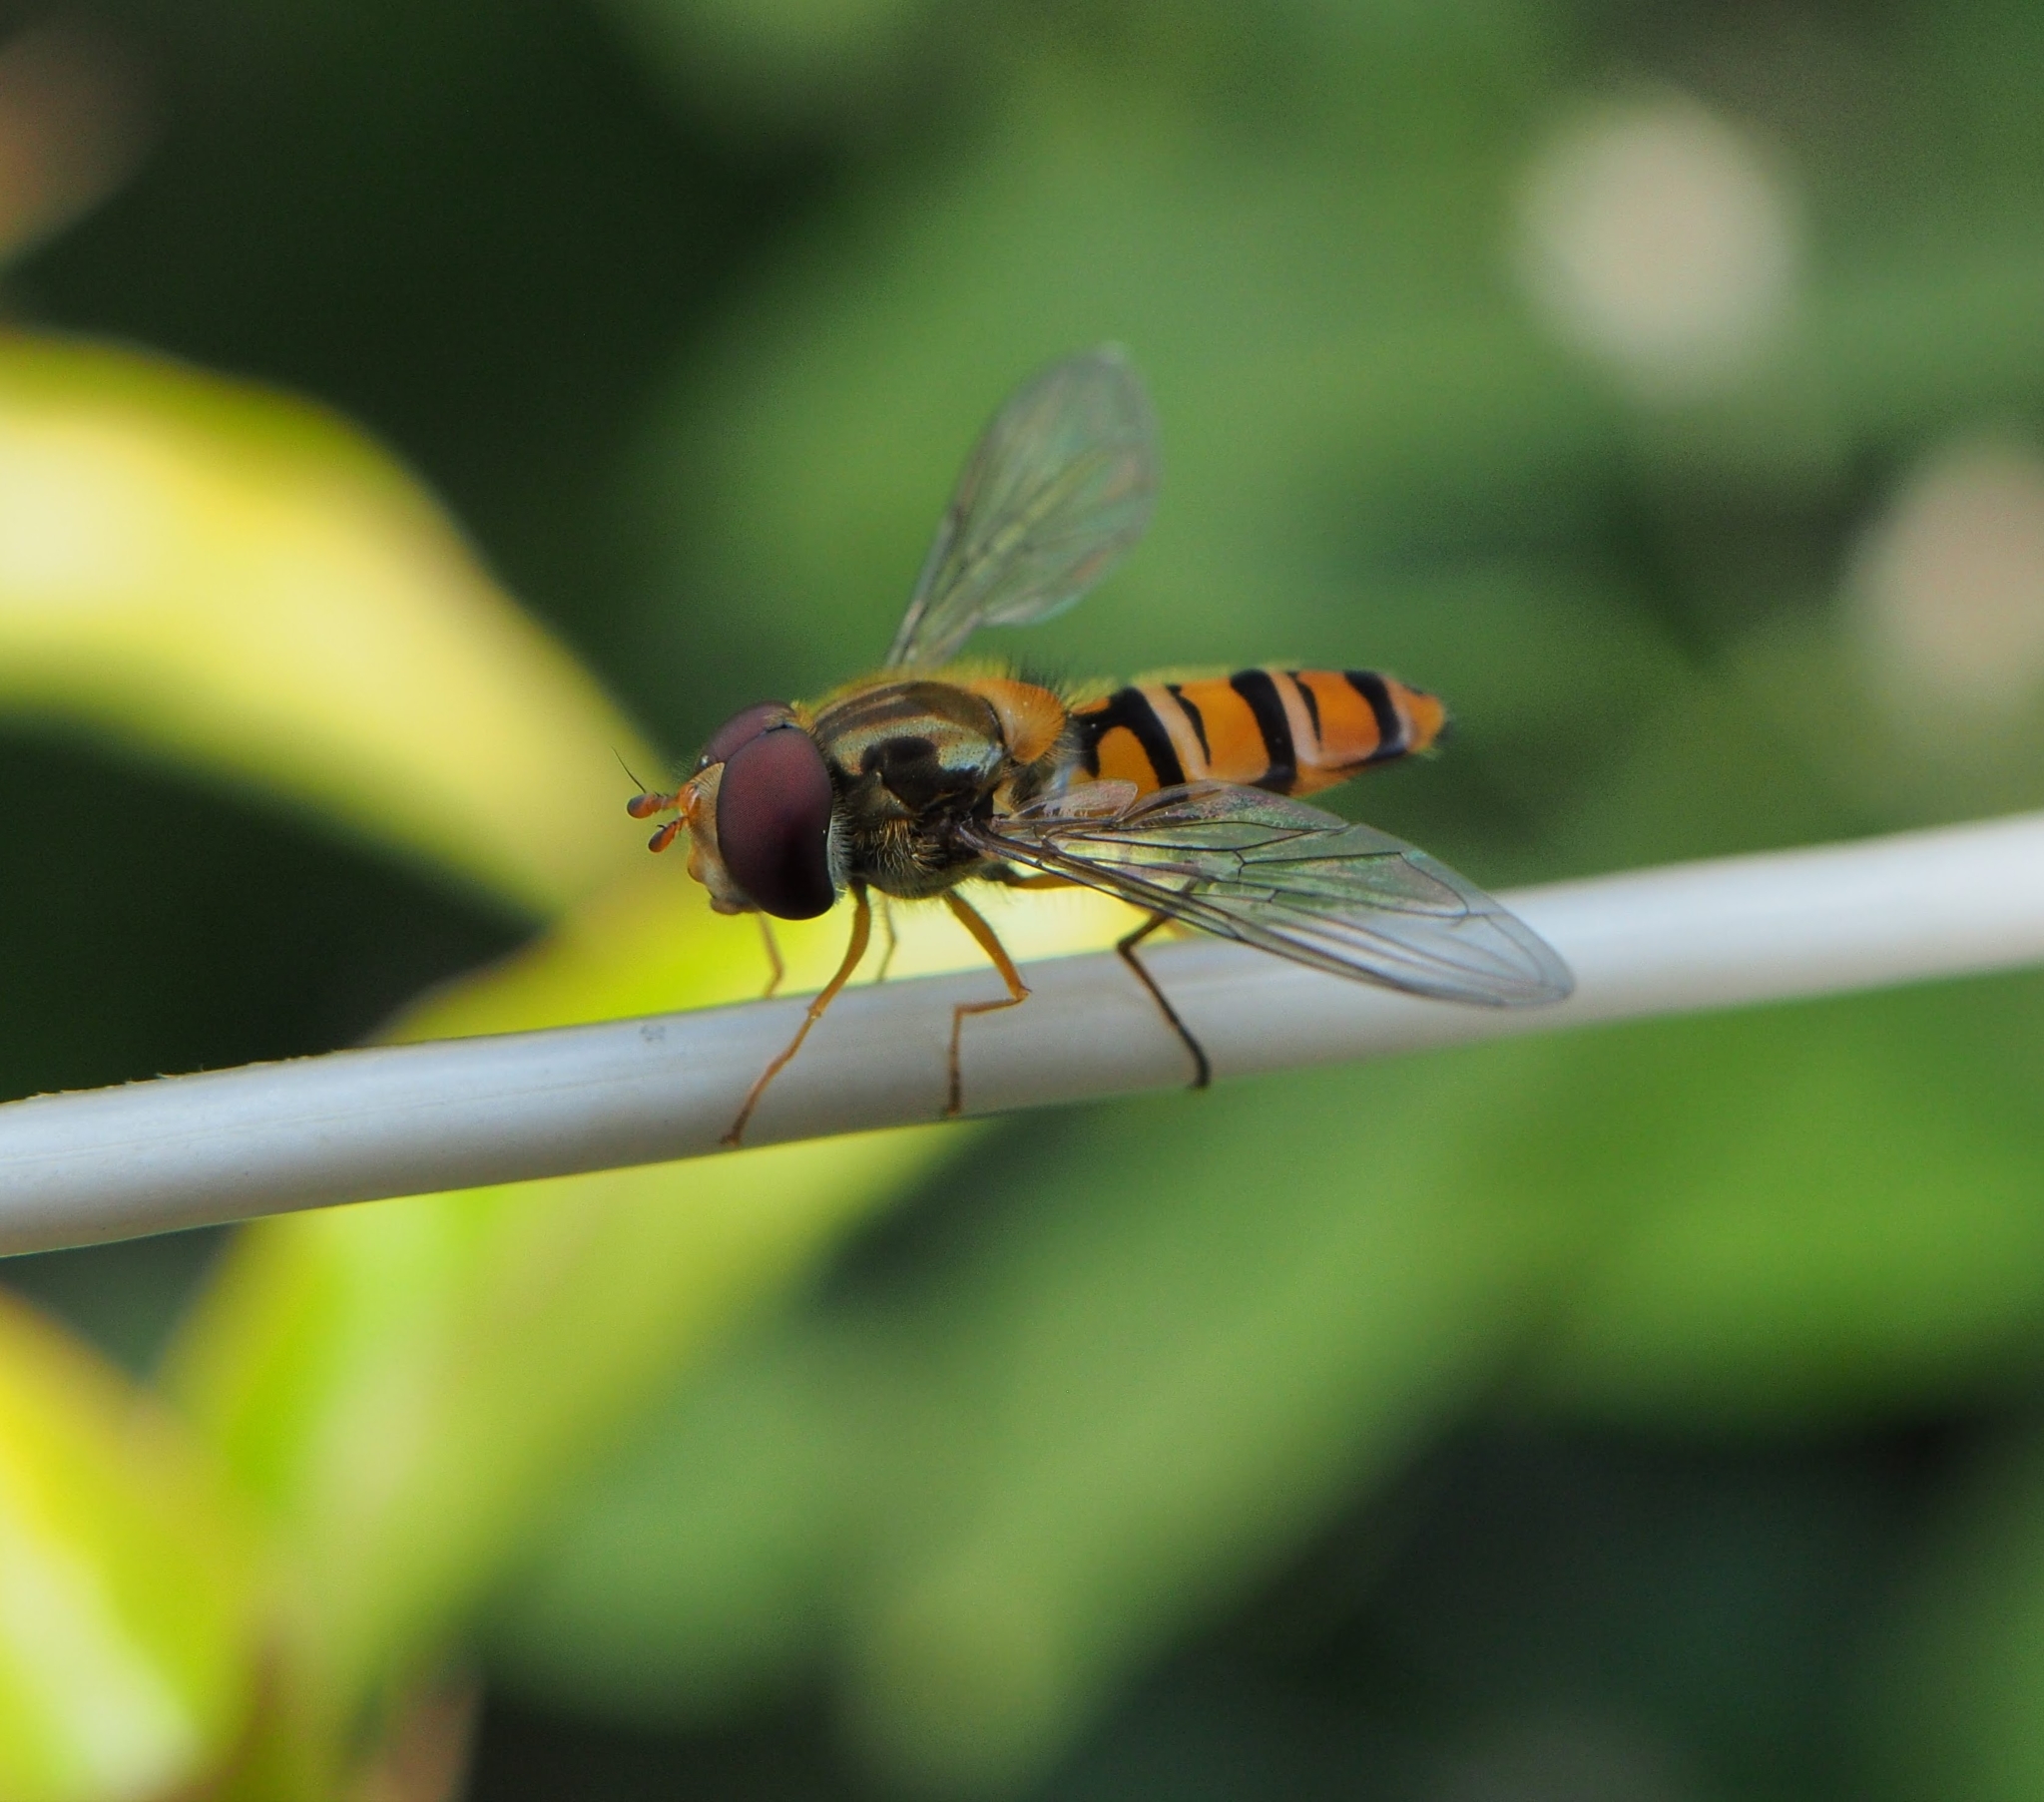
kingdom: Animalia
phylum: Arthropoda
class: Insecta
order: Diptera
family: Syrphidae
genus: Episyrphus
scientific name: Episyrphus balteatus
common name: Marmalade hoverfly
